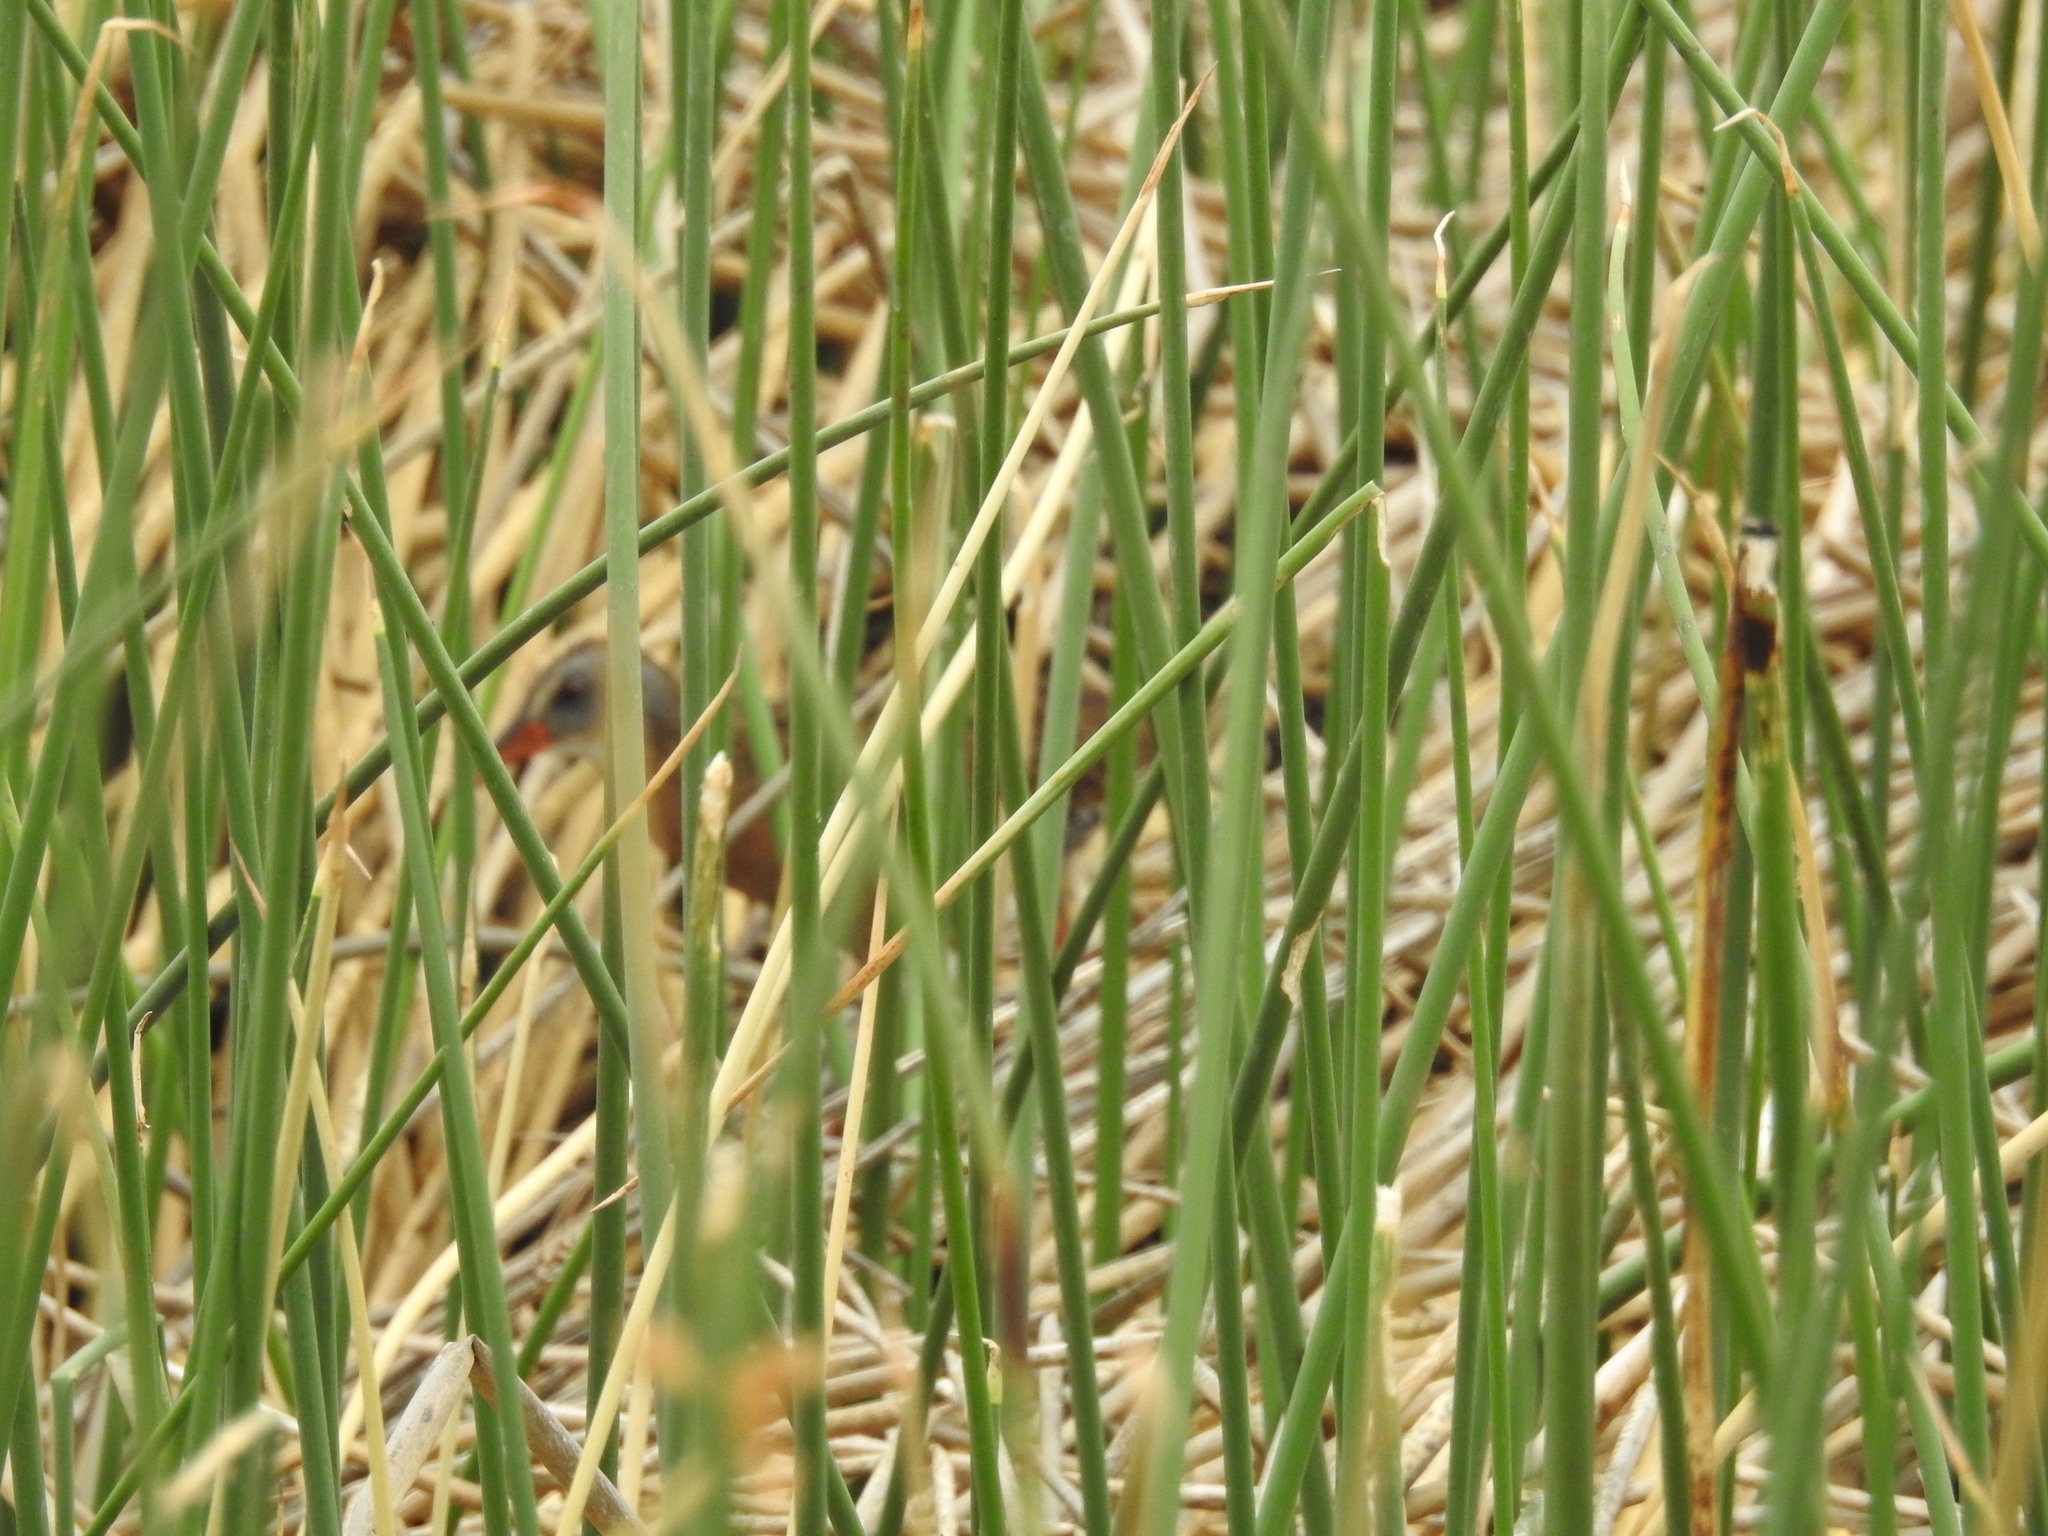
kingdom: Animalia
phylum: Chordata
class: Aves
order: Gruiformes
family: Rallidae
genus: Rallus
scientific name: Rallus limicola
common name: Virginia rail
